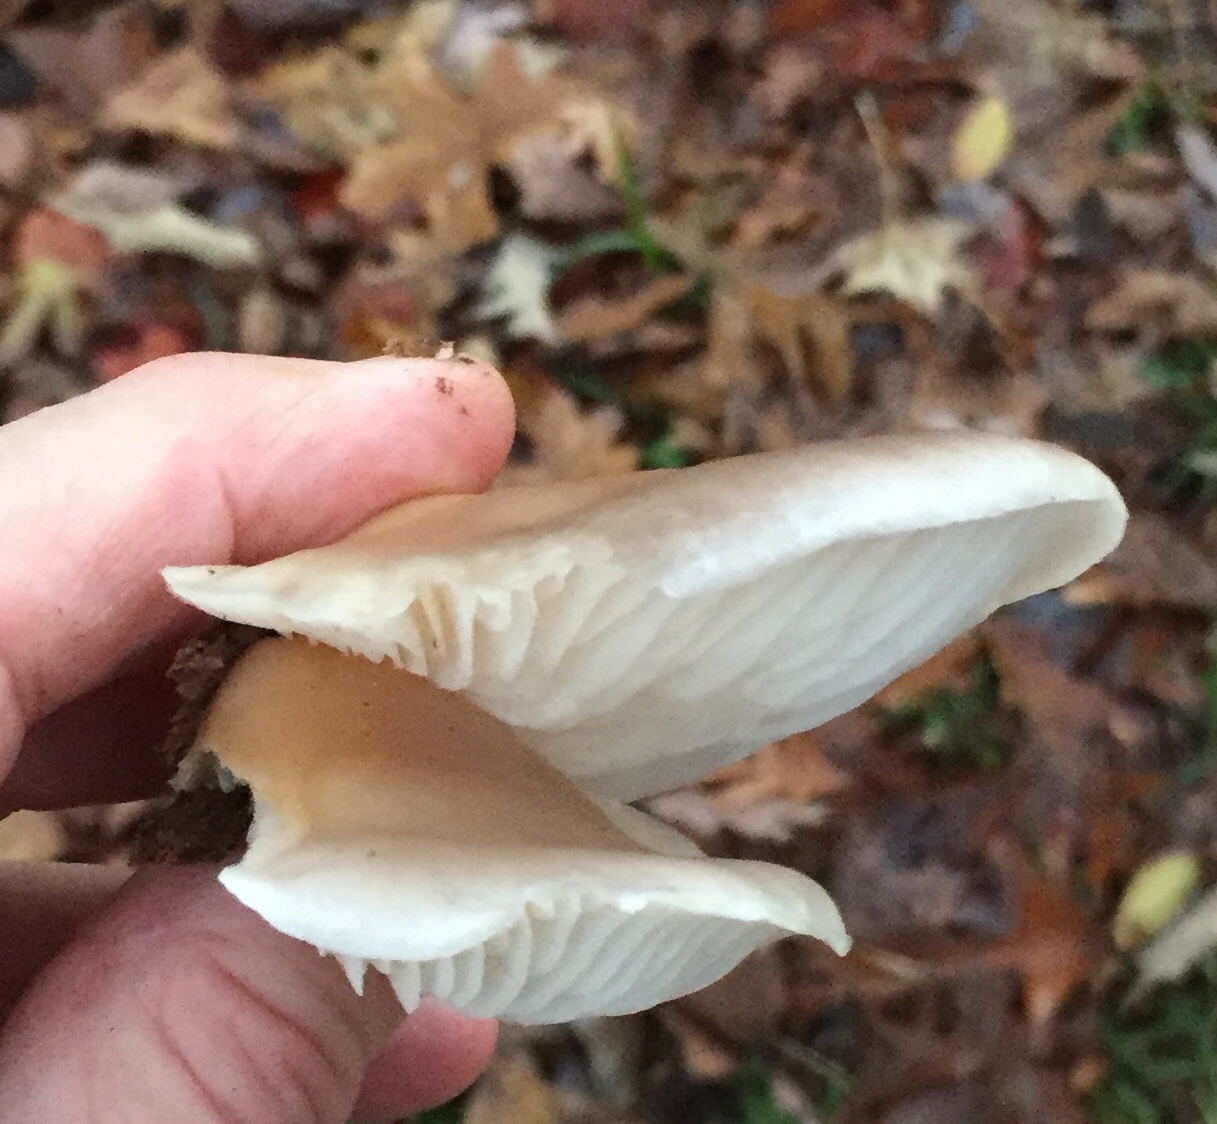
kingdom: Fungi
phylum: Basidiomycota
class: Agaricomycetes
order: Agaricales
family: Pleurotaceae
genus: Pleurotus
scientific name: Pleurotus ostreatus
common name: Oyster mushroom
